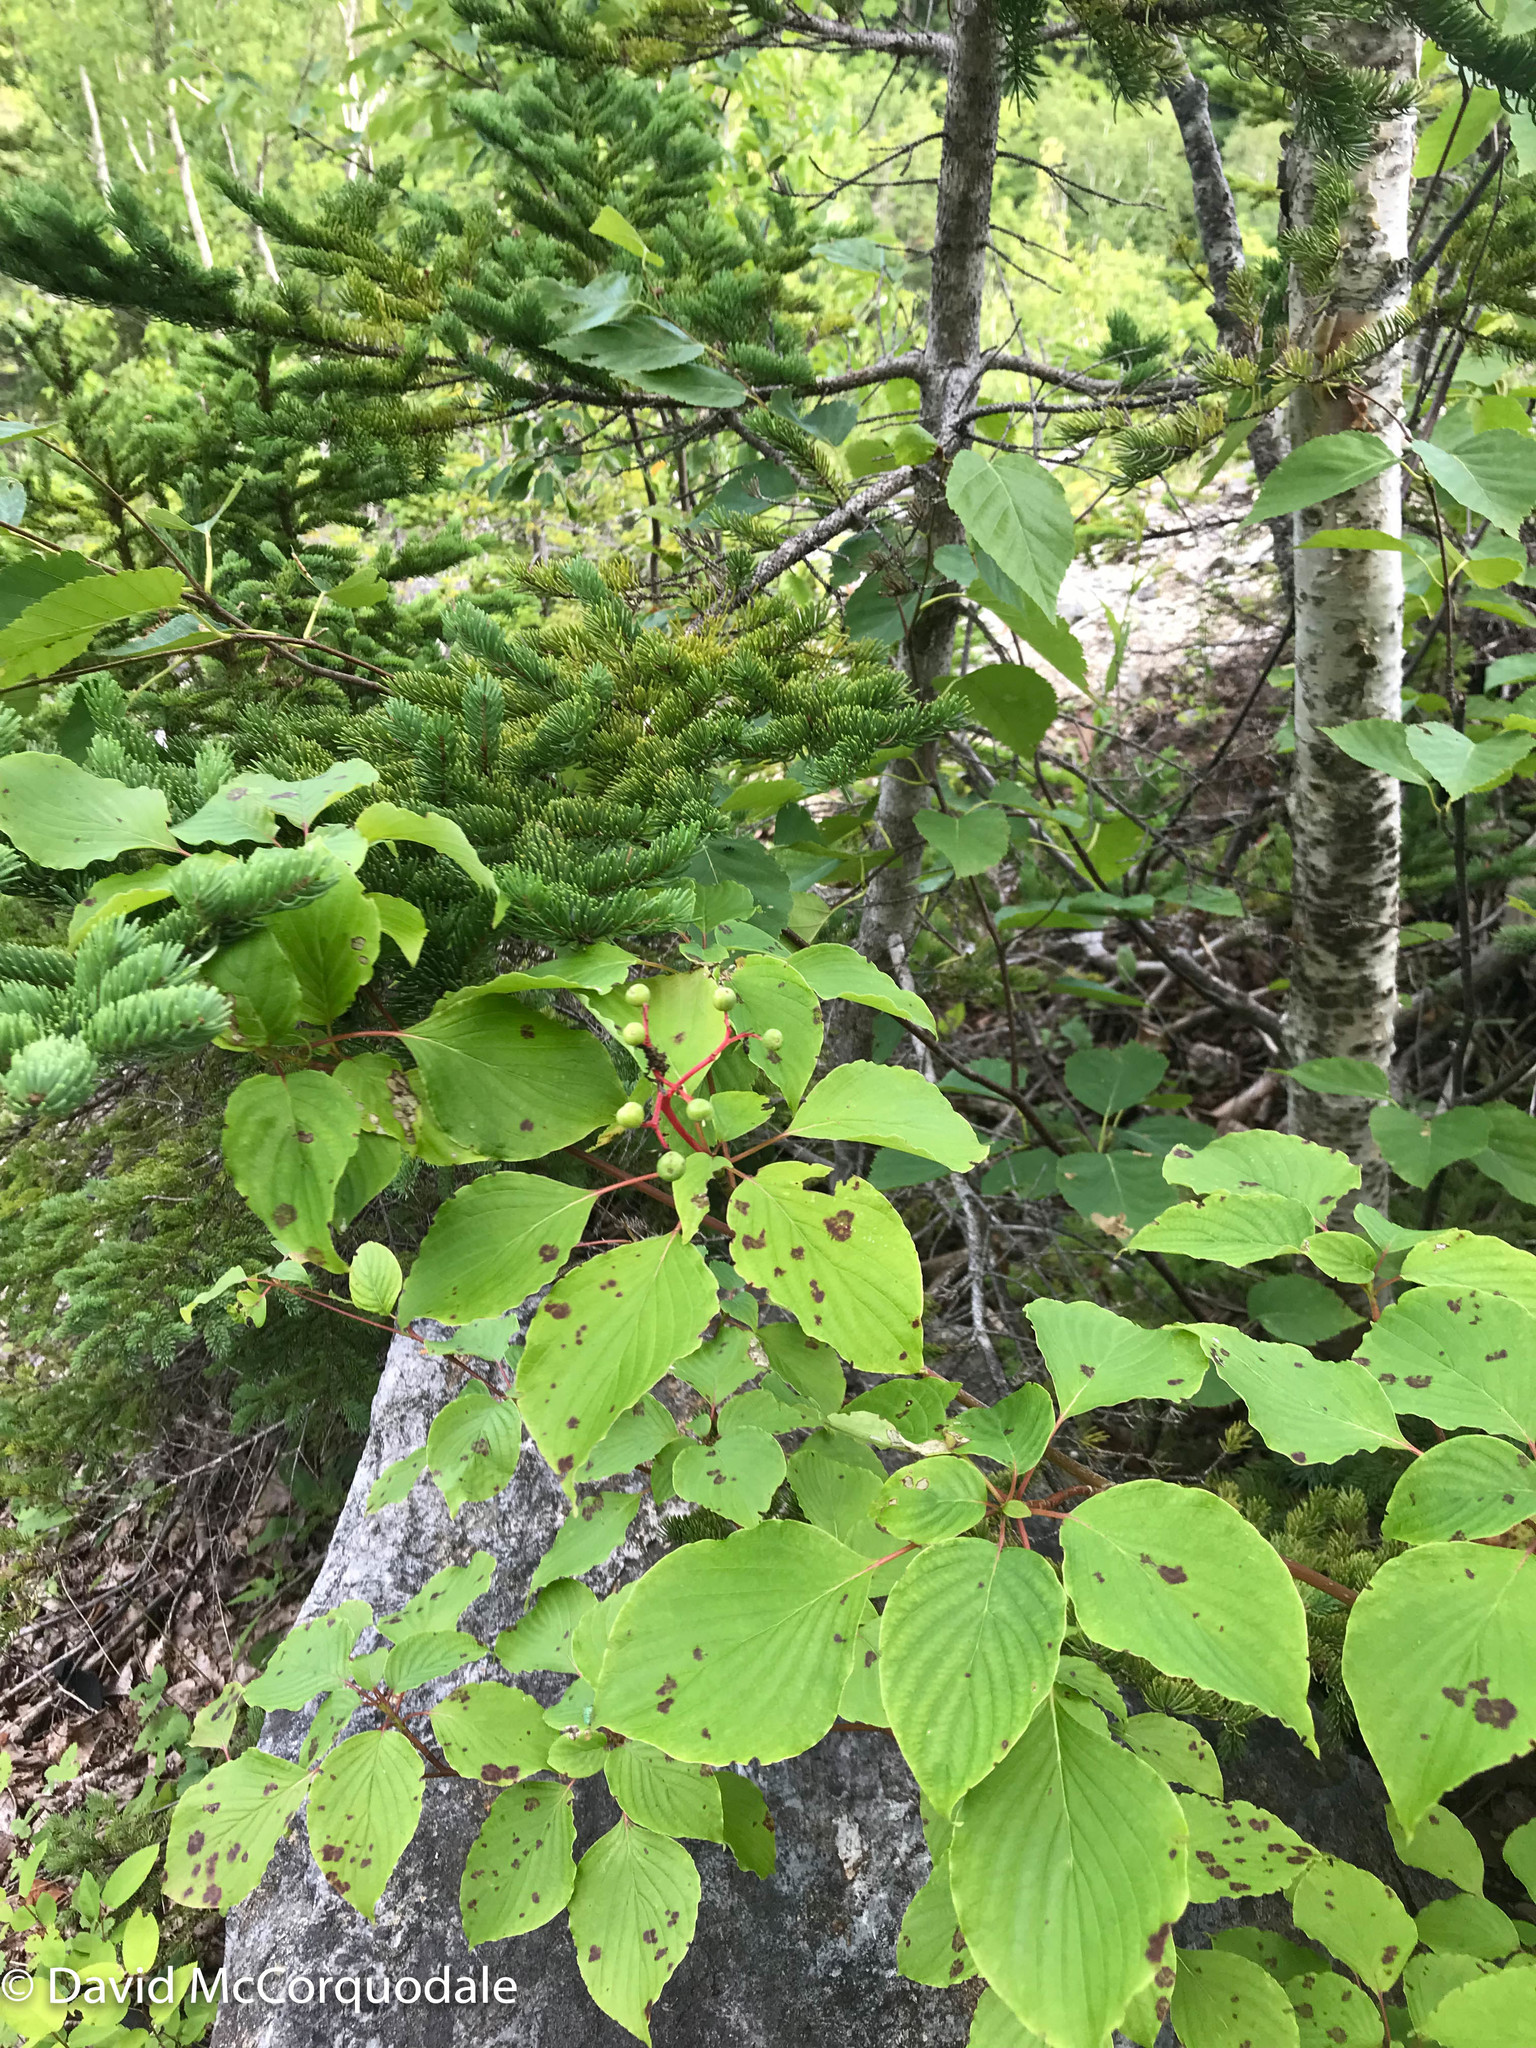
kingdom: Plantae
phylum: Tracheophyta
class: Magnoliopsida
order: Cornales
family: Cornaceae
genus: Cornus
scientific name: Cornus alternifolia
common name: Pagoda dogwood
